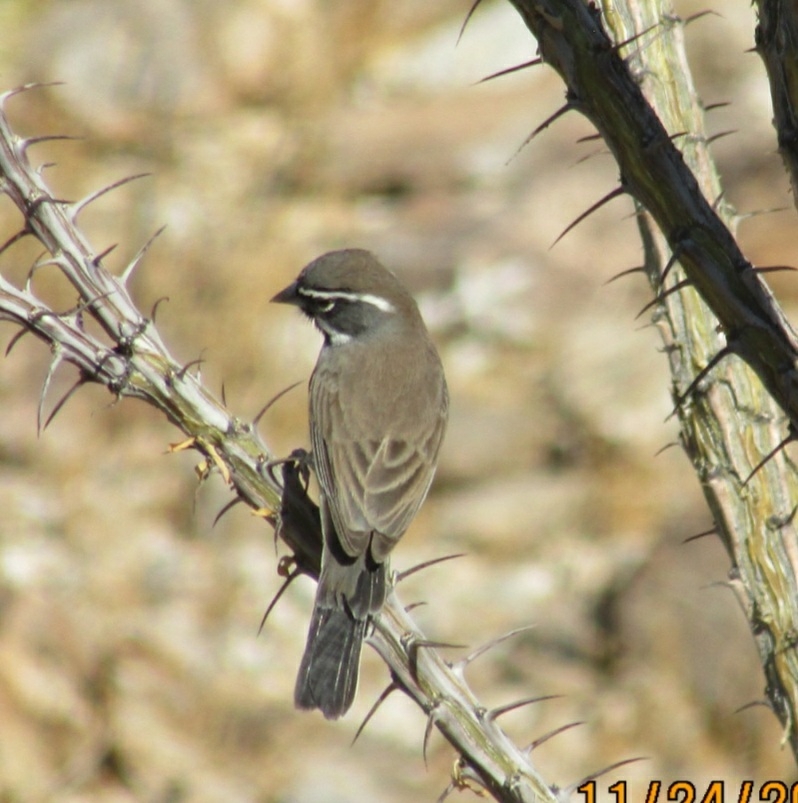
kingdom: Animalia
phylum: Chordata
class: Aves
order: Passeriformes
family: Passerellidae
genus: Amphispiza
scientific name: Amphispiza bilineata
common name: Black-throated sparrow
